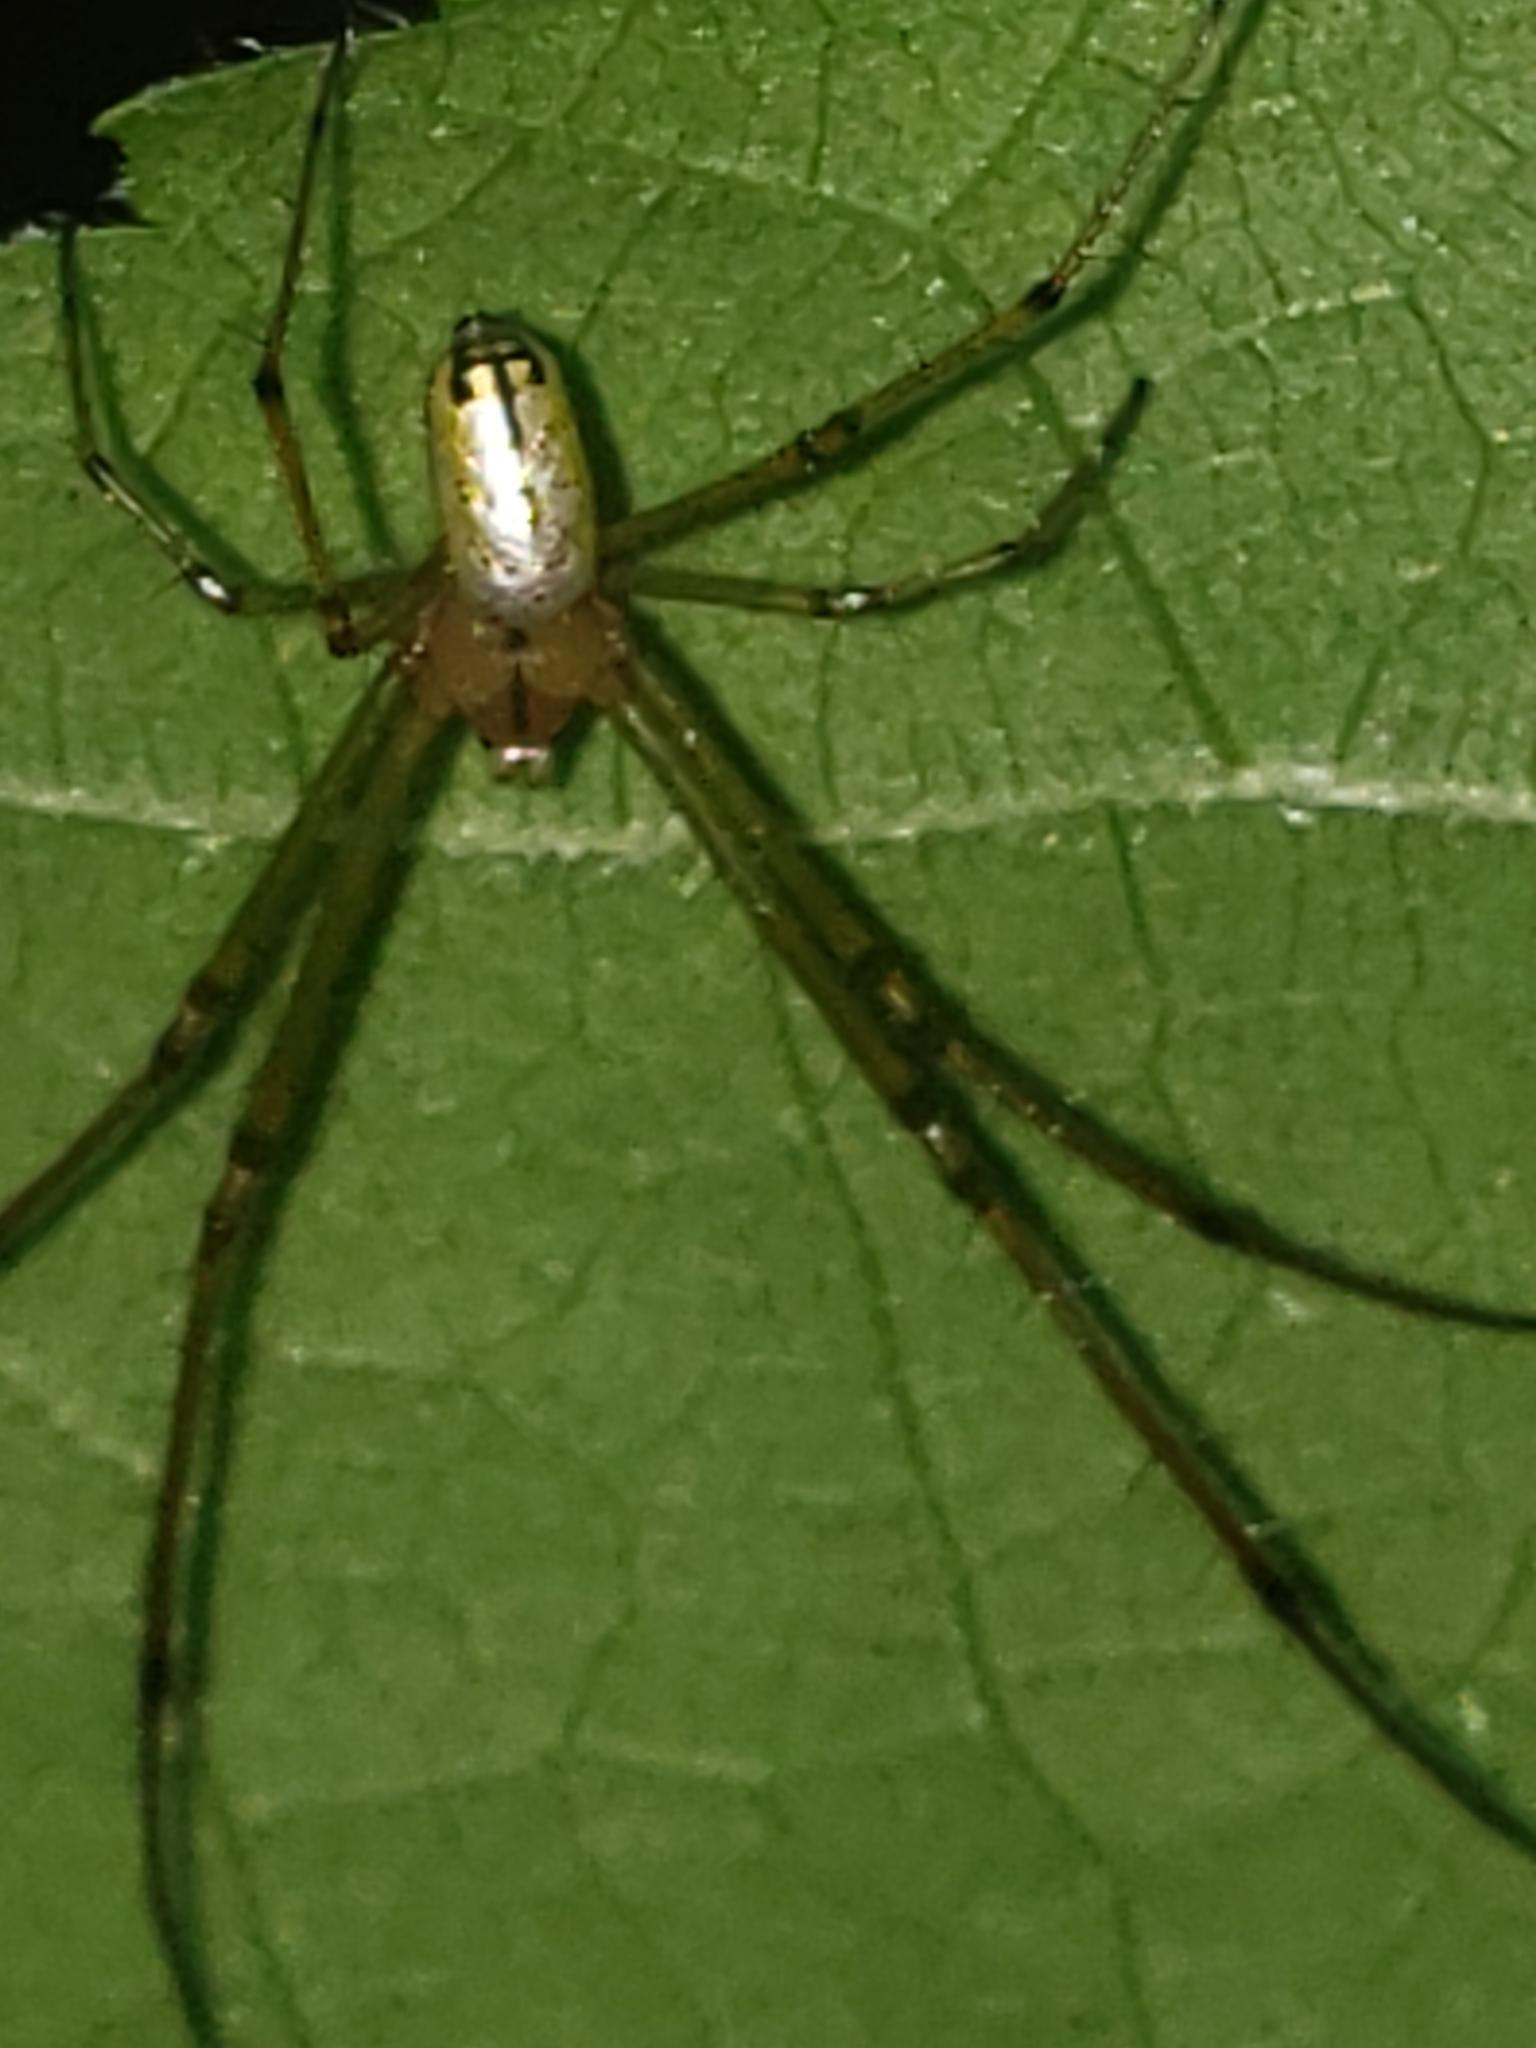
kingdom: Animalia
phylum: Arthropoda
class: Arachnida
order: Araneae
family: Tetragnathidae
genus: Leucauge
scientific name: Leucauge venusta
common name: Longjawed orb weavers
